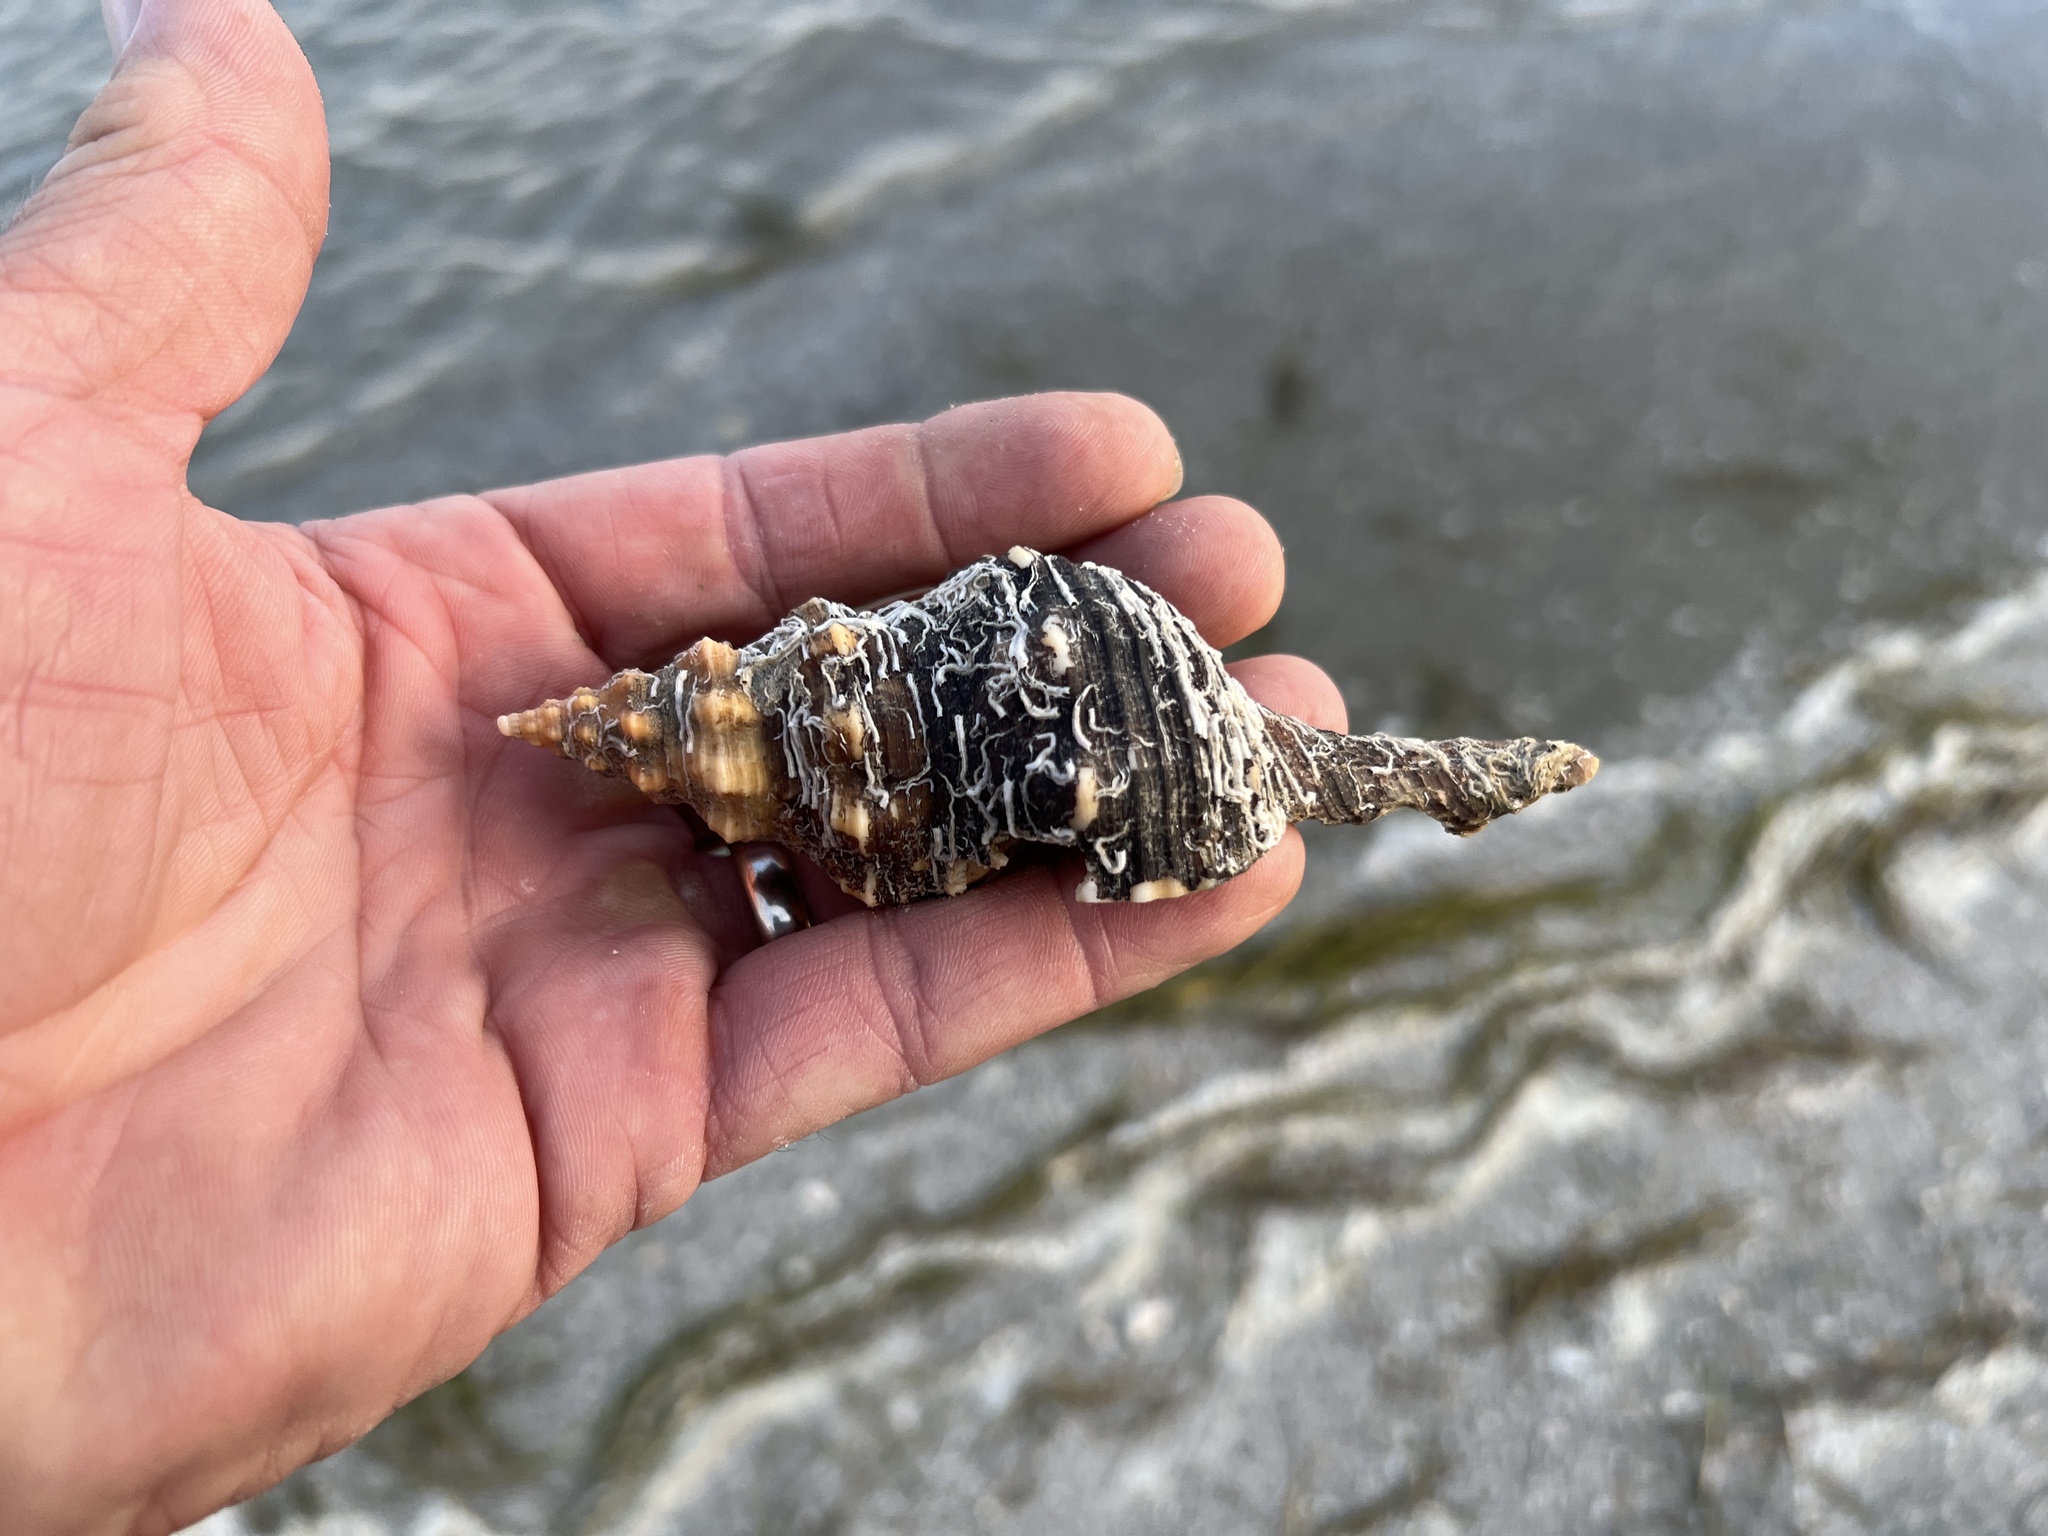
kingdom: Animalia
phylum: Mollusca
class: Gastropoda
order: Neogastropoda
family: Fasciolariidae
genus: Triplofusus
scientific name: Triplofusus giganteus
